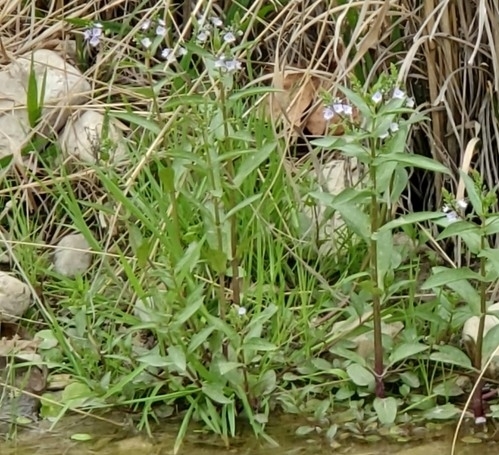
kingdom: Plantae
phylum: Tracheophyta
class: Magnoliopsida
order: Lamiales
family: Plantaginaceae
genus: Veronica
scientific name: Veronica anagallis-aquatica
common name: Water speedwell
